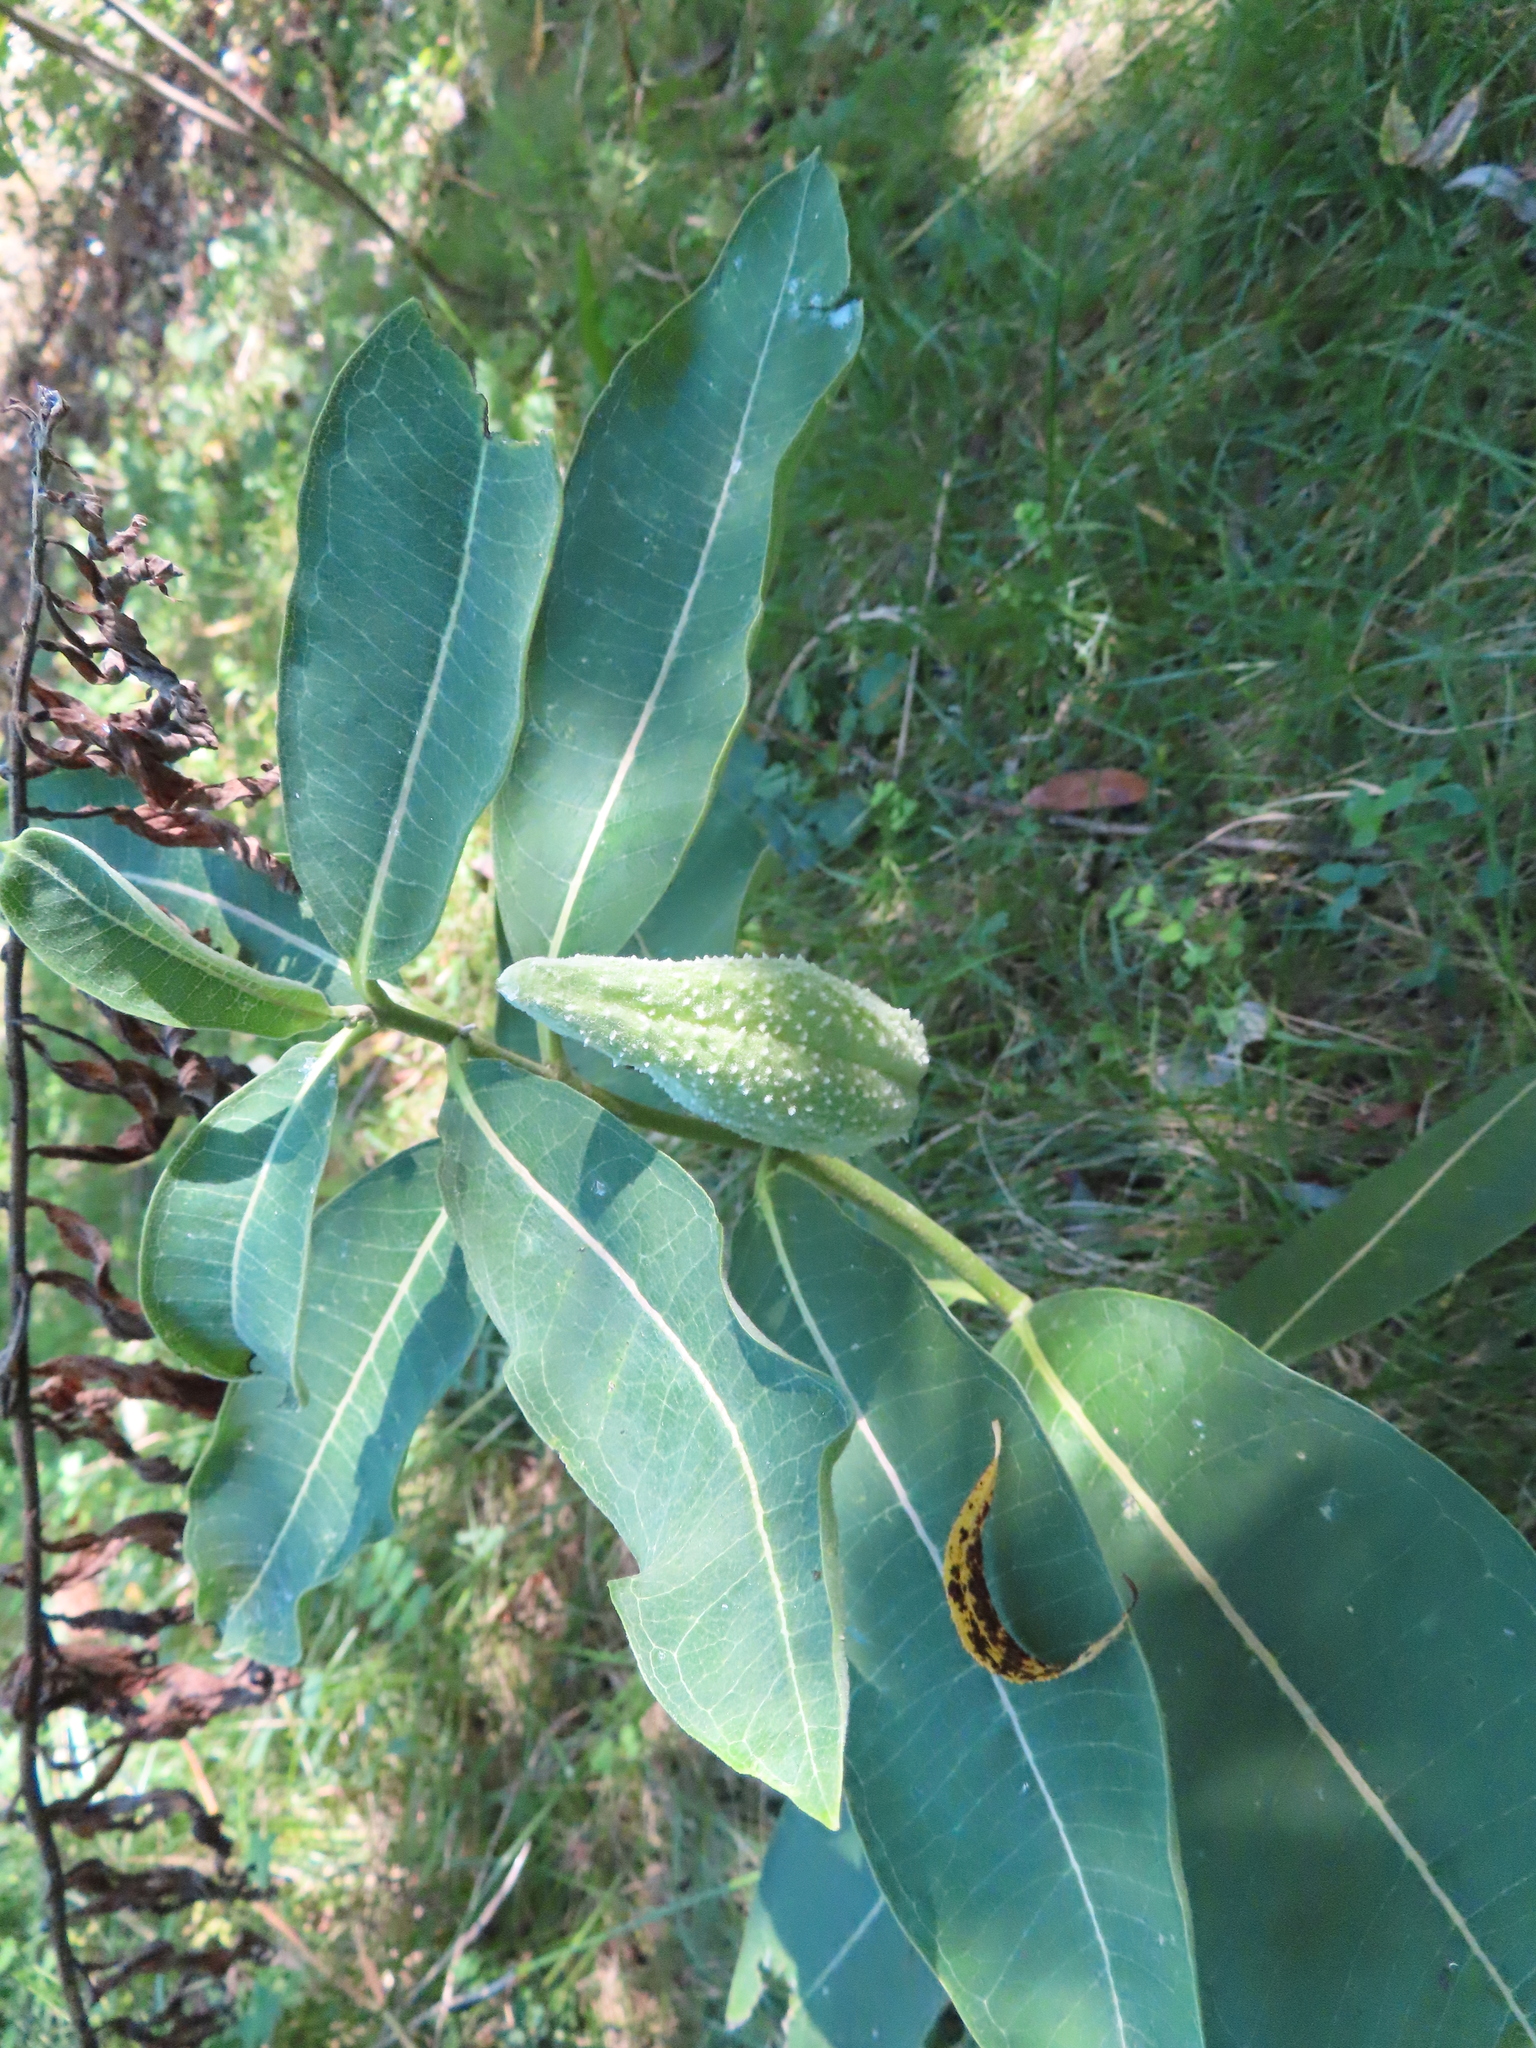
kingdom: Plantae
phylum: Tracheophyta
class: Magnoliopsida
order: Gentianales
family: Apocynaceae
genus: Asclepias
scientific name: Asclepias syriaca
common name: Common milkweed
